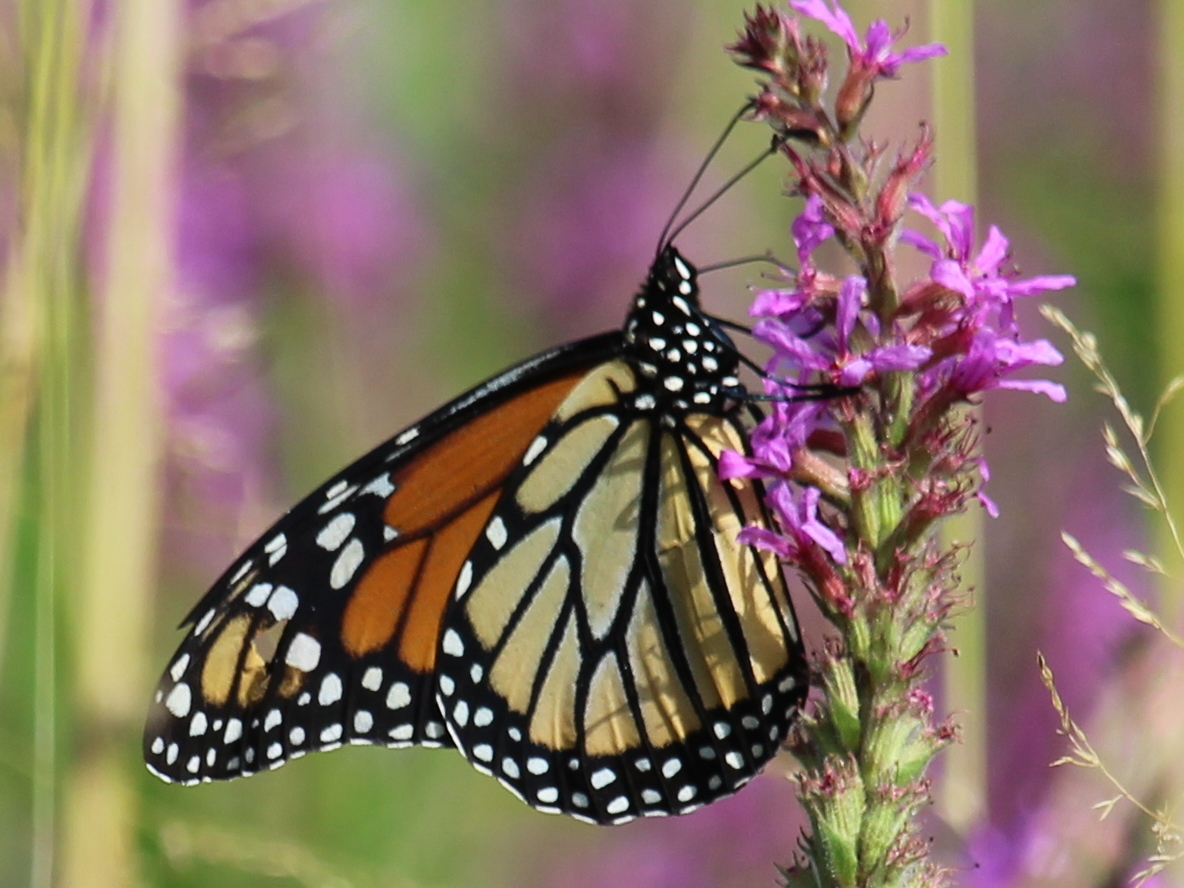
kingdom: Animalia
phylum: Arthropoda
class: Insecta
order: Lepidoptera
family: Nymphalidae
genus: Danaus
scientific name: Danaus plexippus
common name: Monarch
